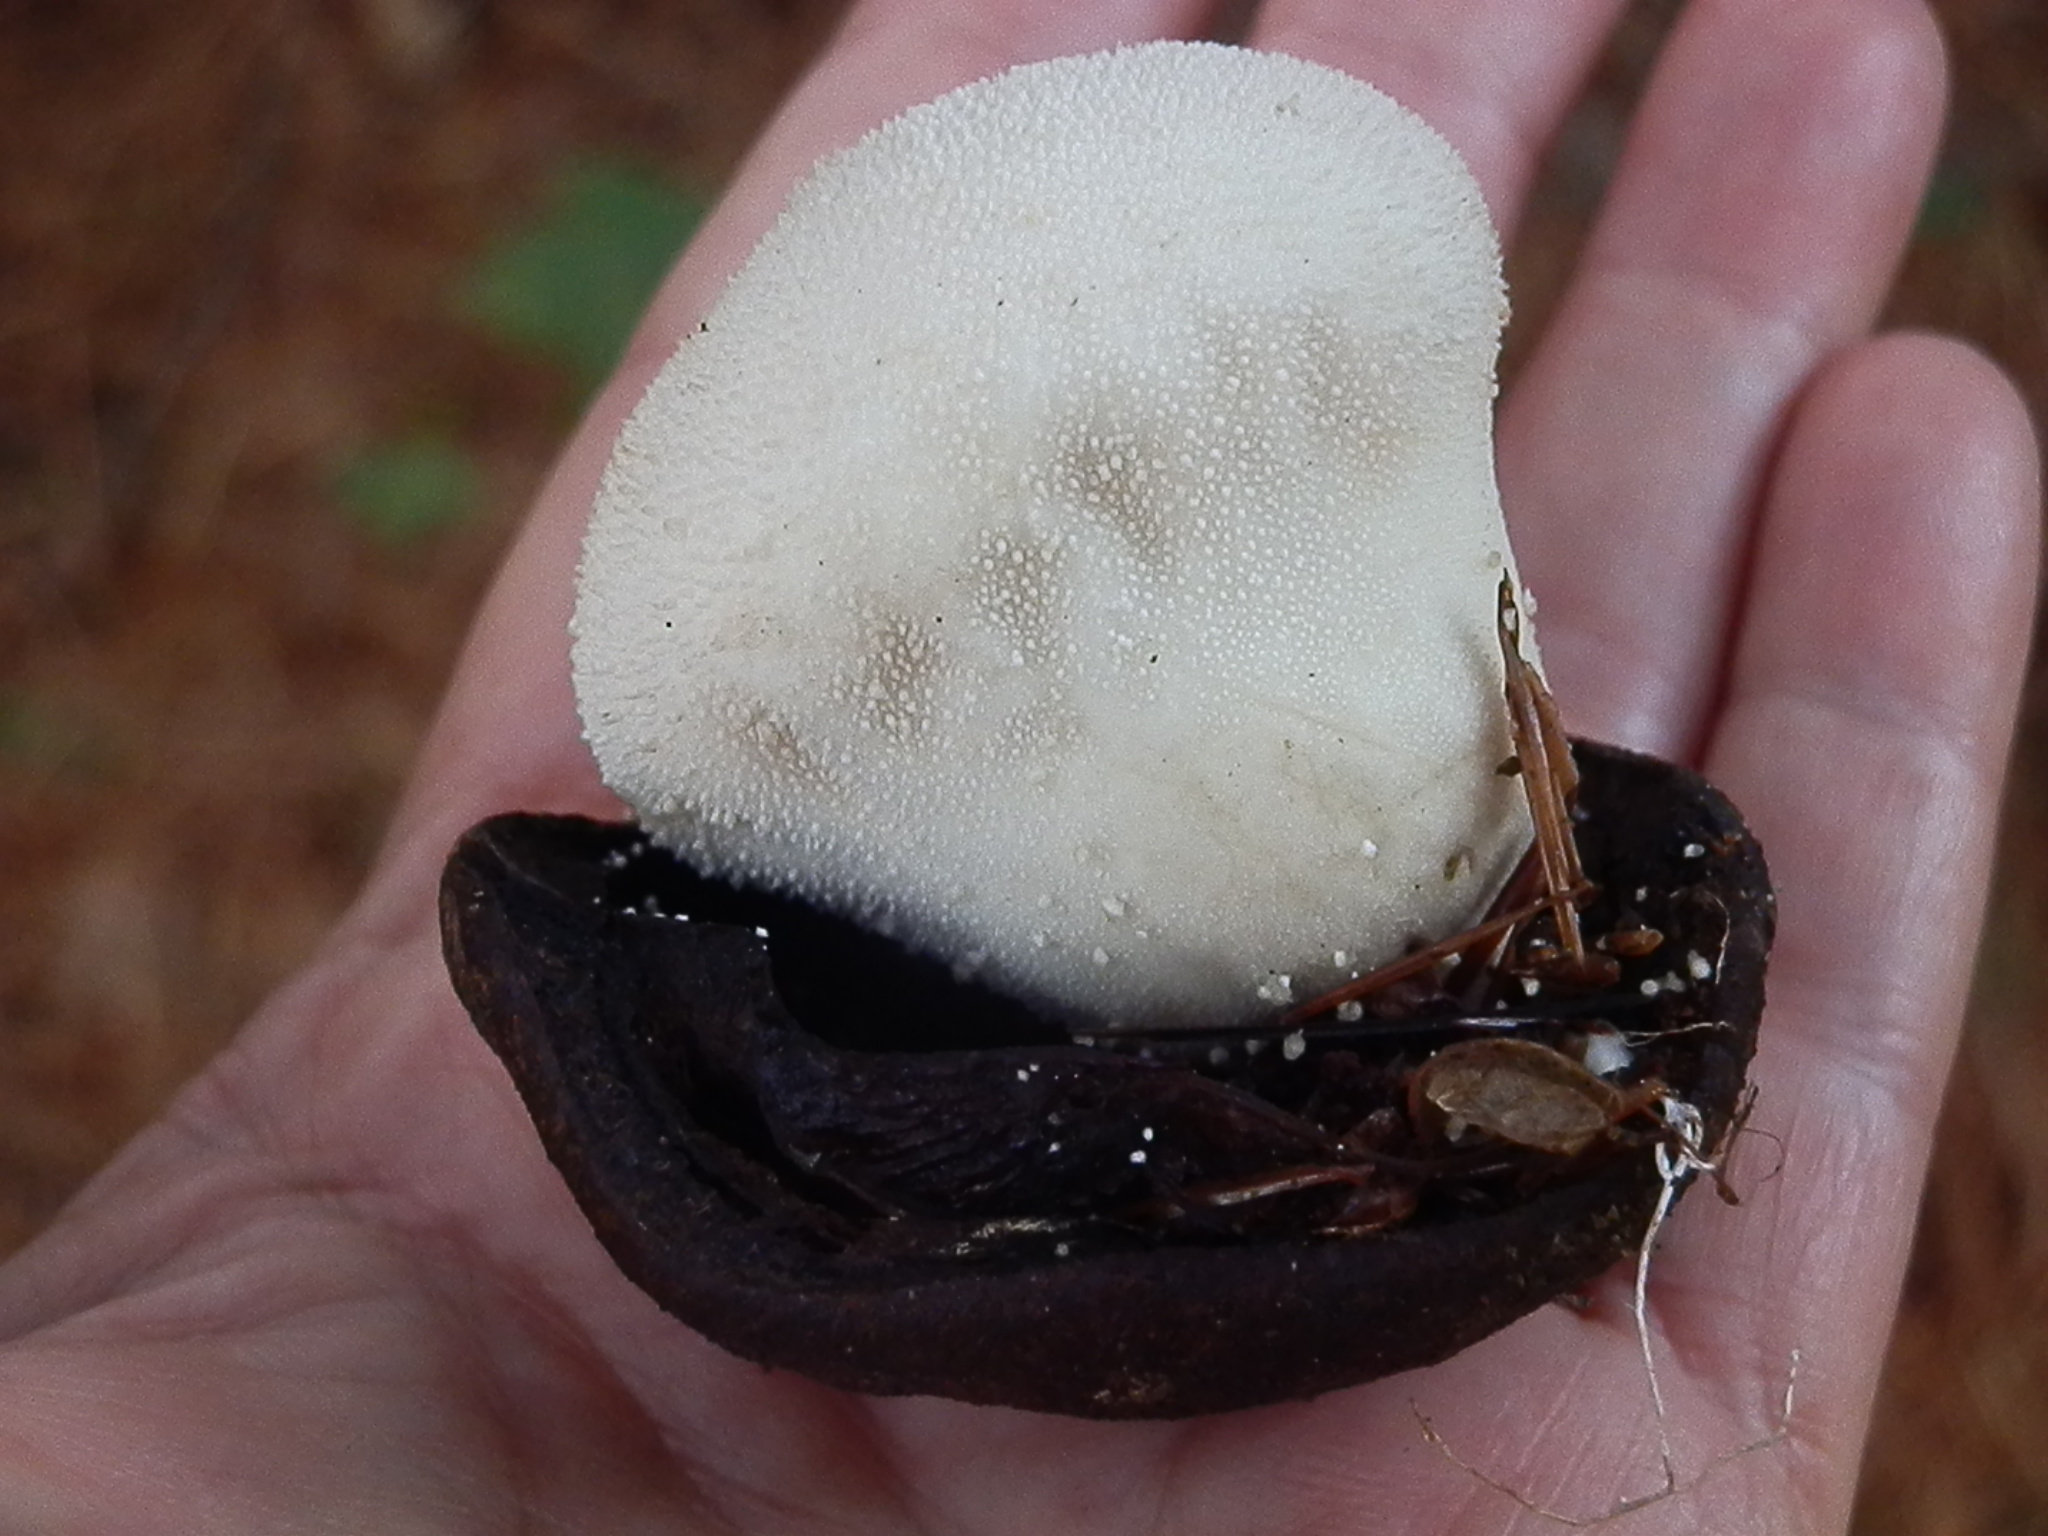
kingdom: Fungi
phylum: Basidiomycota
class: Agaricomycetes
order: Agaricales
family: Lycoperdaceae
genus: Lycoperdon
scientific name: Lycoperdon perlatum
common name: Common puffball
